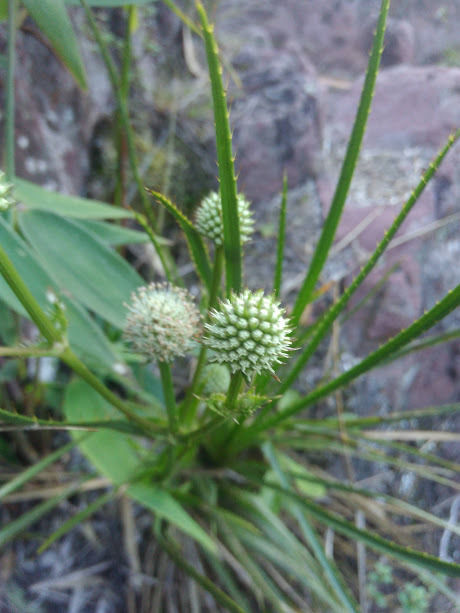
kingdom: Plantae
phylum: Tracheophyta
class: Magnoliopsida
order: Apiales
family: Apiaceae
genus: Eryngium
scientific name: Eryngium humboldtii
